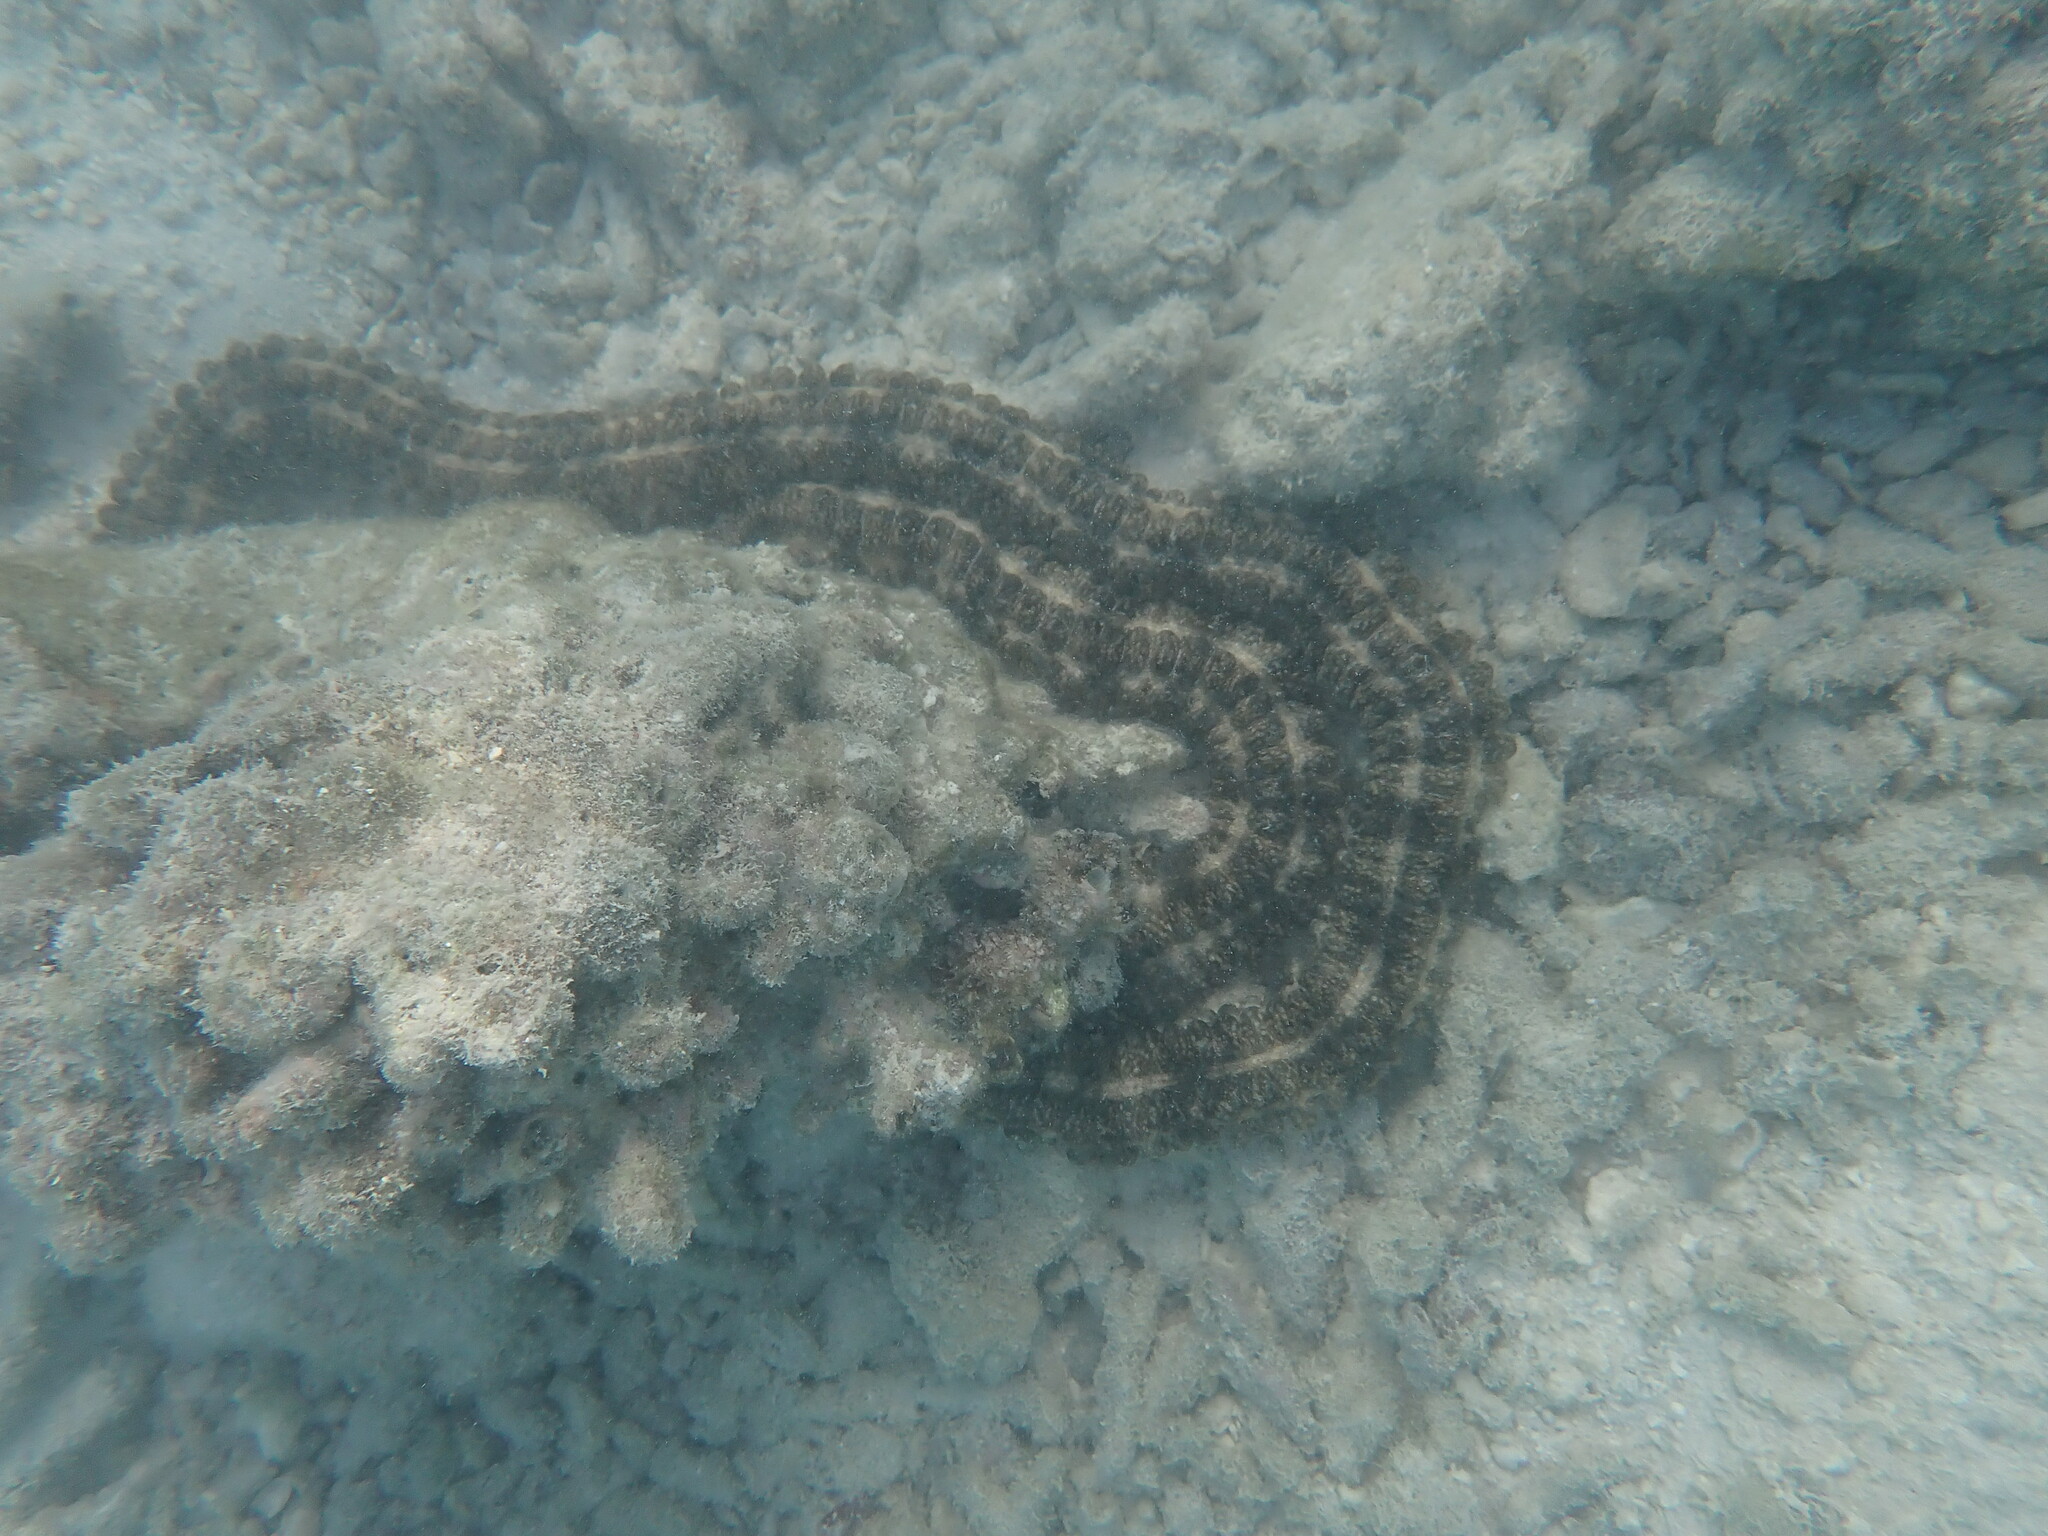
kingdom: Animalia
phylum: Echinodermata
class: Holothuroidea
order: Apodida
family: Synaptidae
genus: Synapta
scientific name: Synapta maculata
